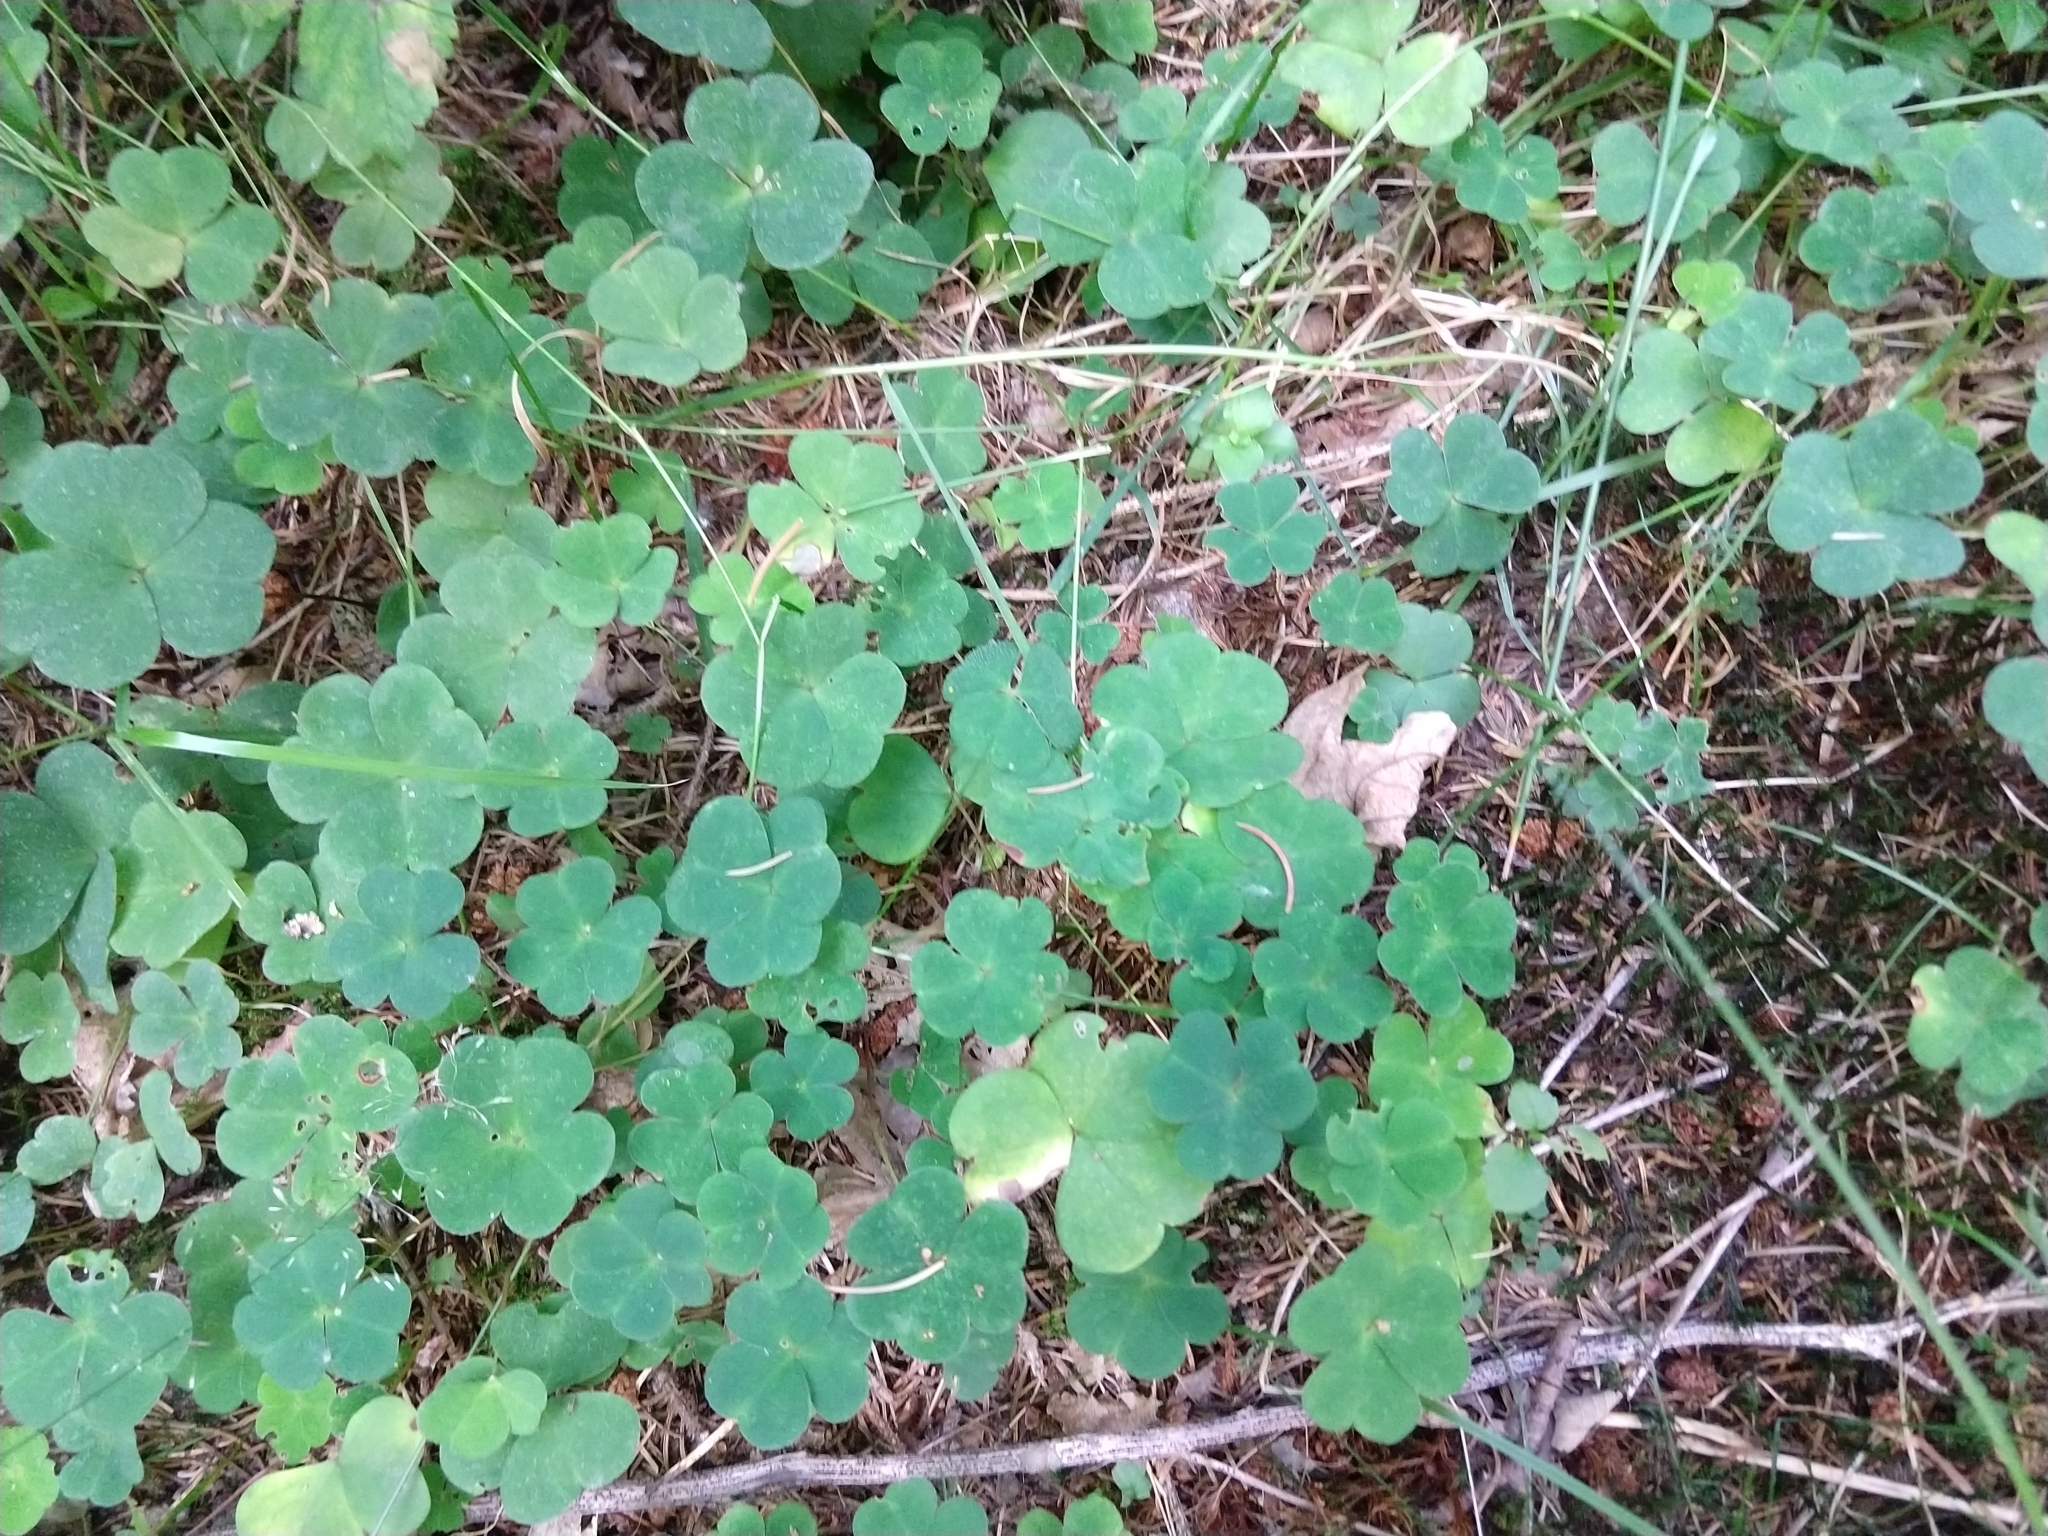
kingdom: Plantae
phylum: Tracheophyta
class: Magnoliopsida
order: Oxalidales
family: Oxalidaceae
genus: Oxalis
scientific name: Oxalis acetosella
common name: Wood-sorrel
